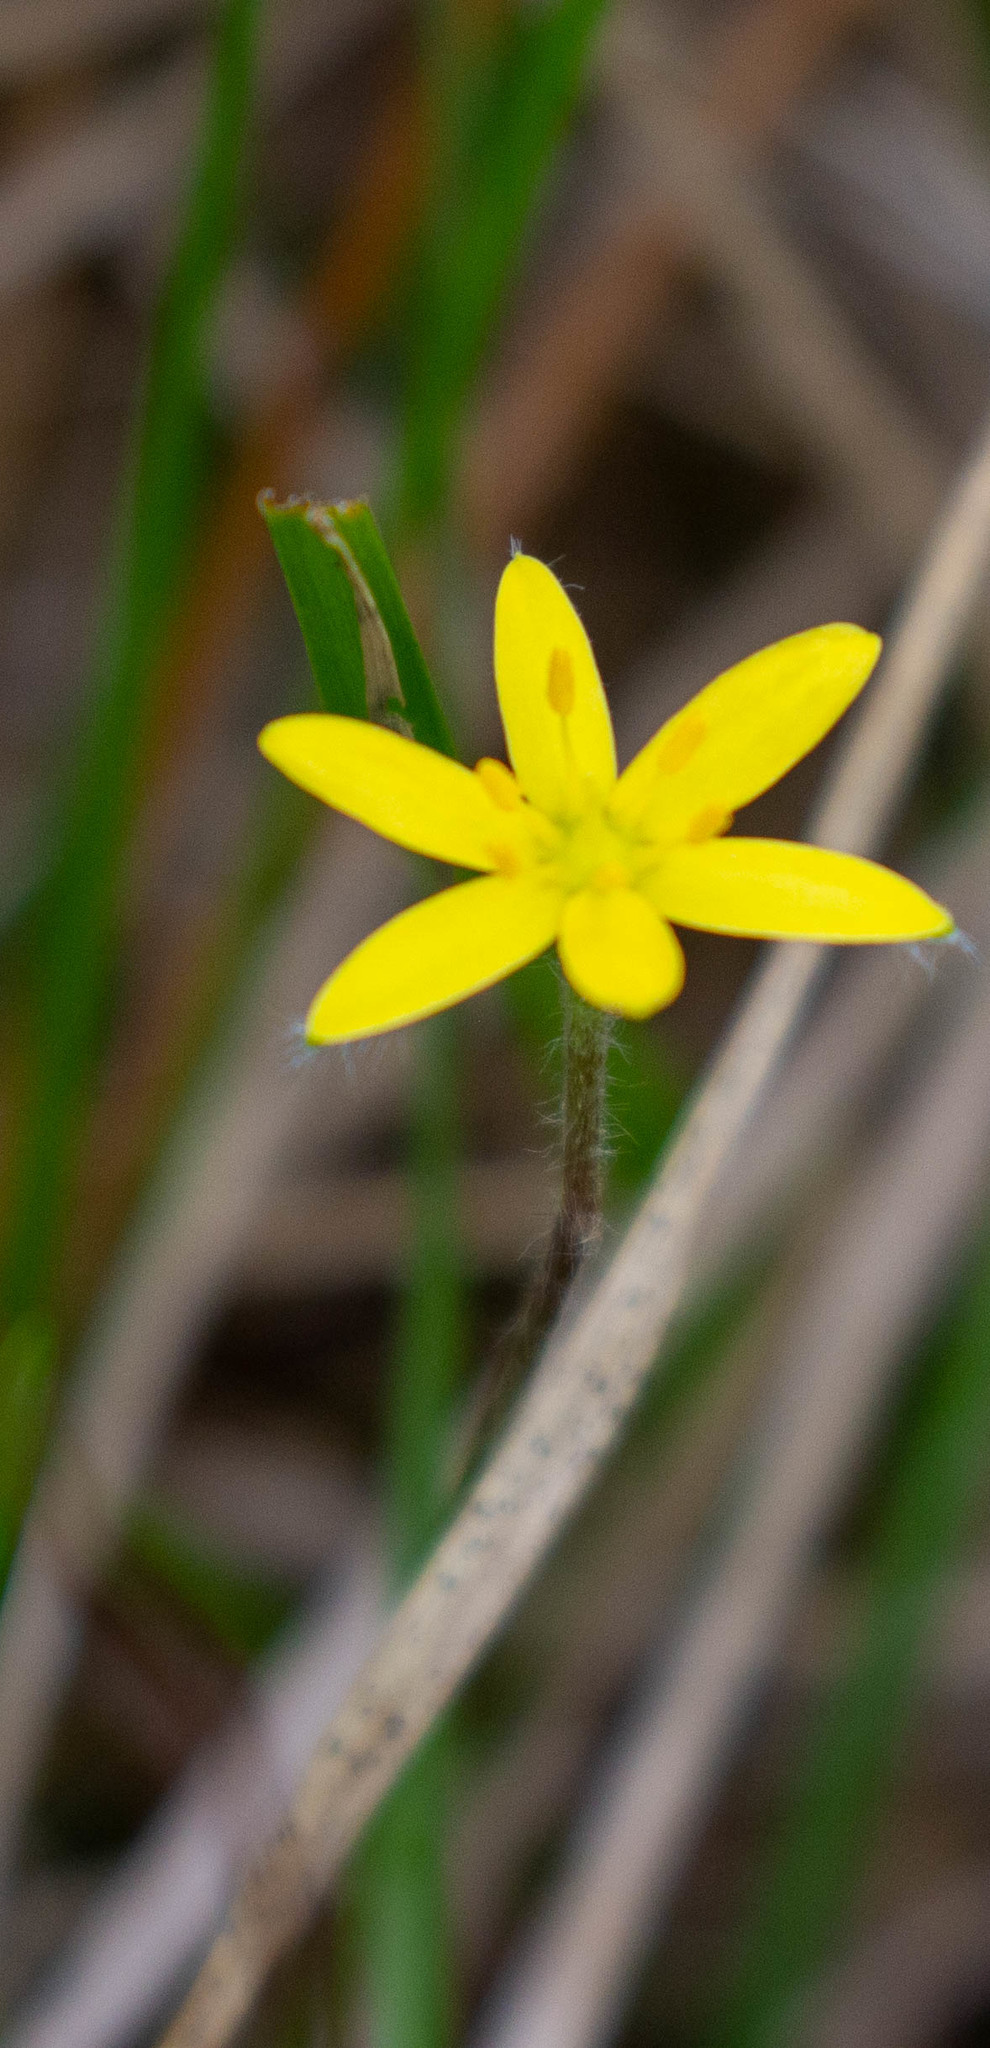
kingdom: Plantae
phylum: Tracheophyta
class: Liliopsida
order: Asparagales
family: Hypoxidaceae
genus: Hypoxis
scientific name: Hypoxis hirsuta
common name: Common goldstar
